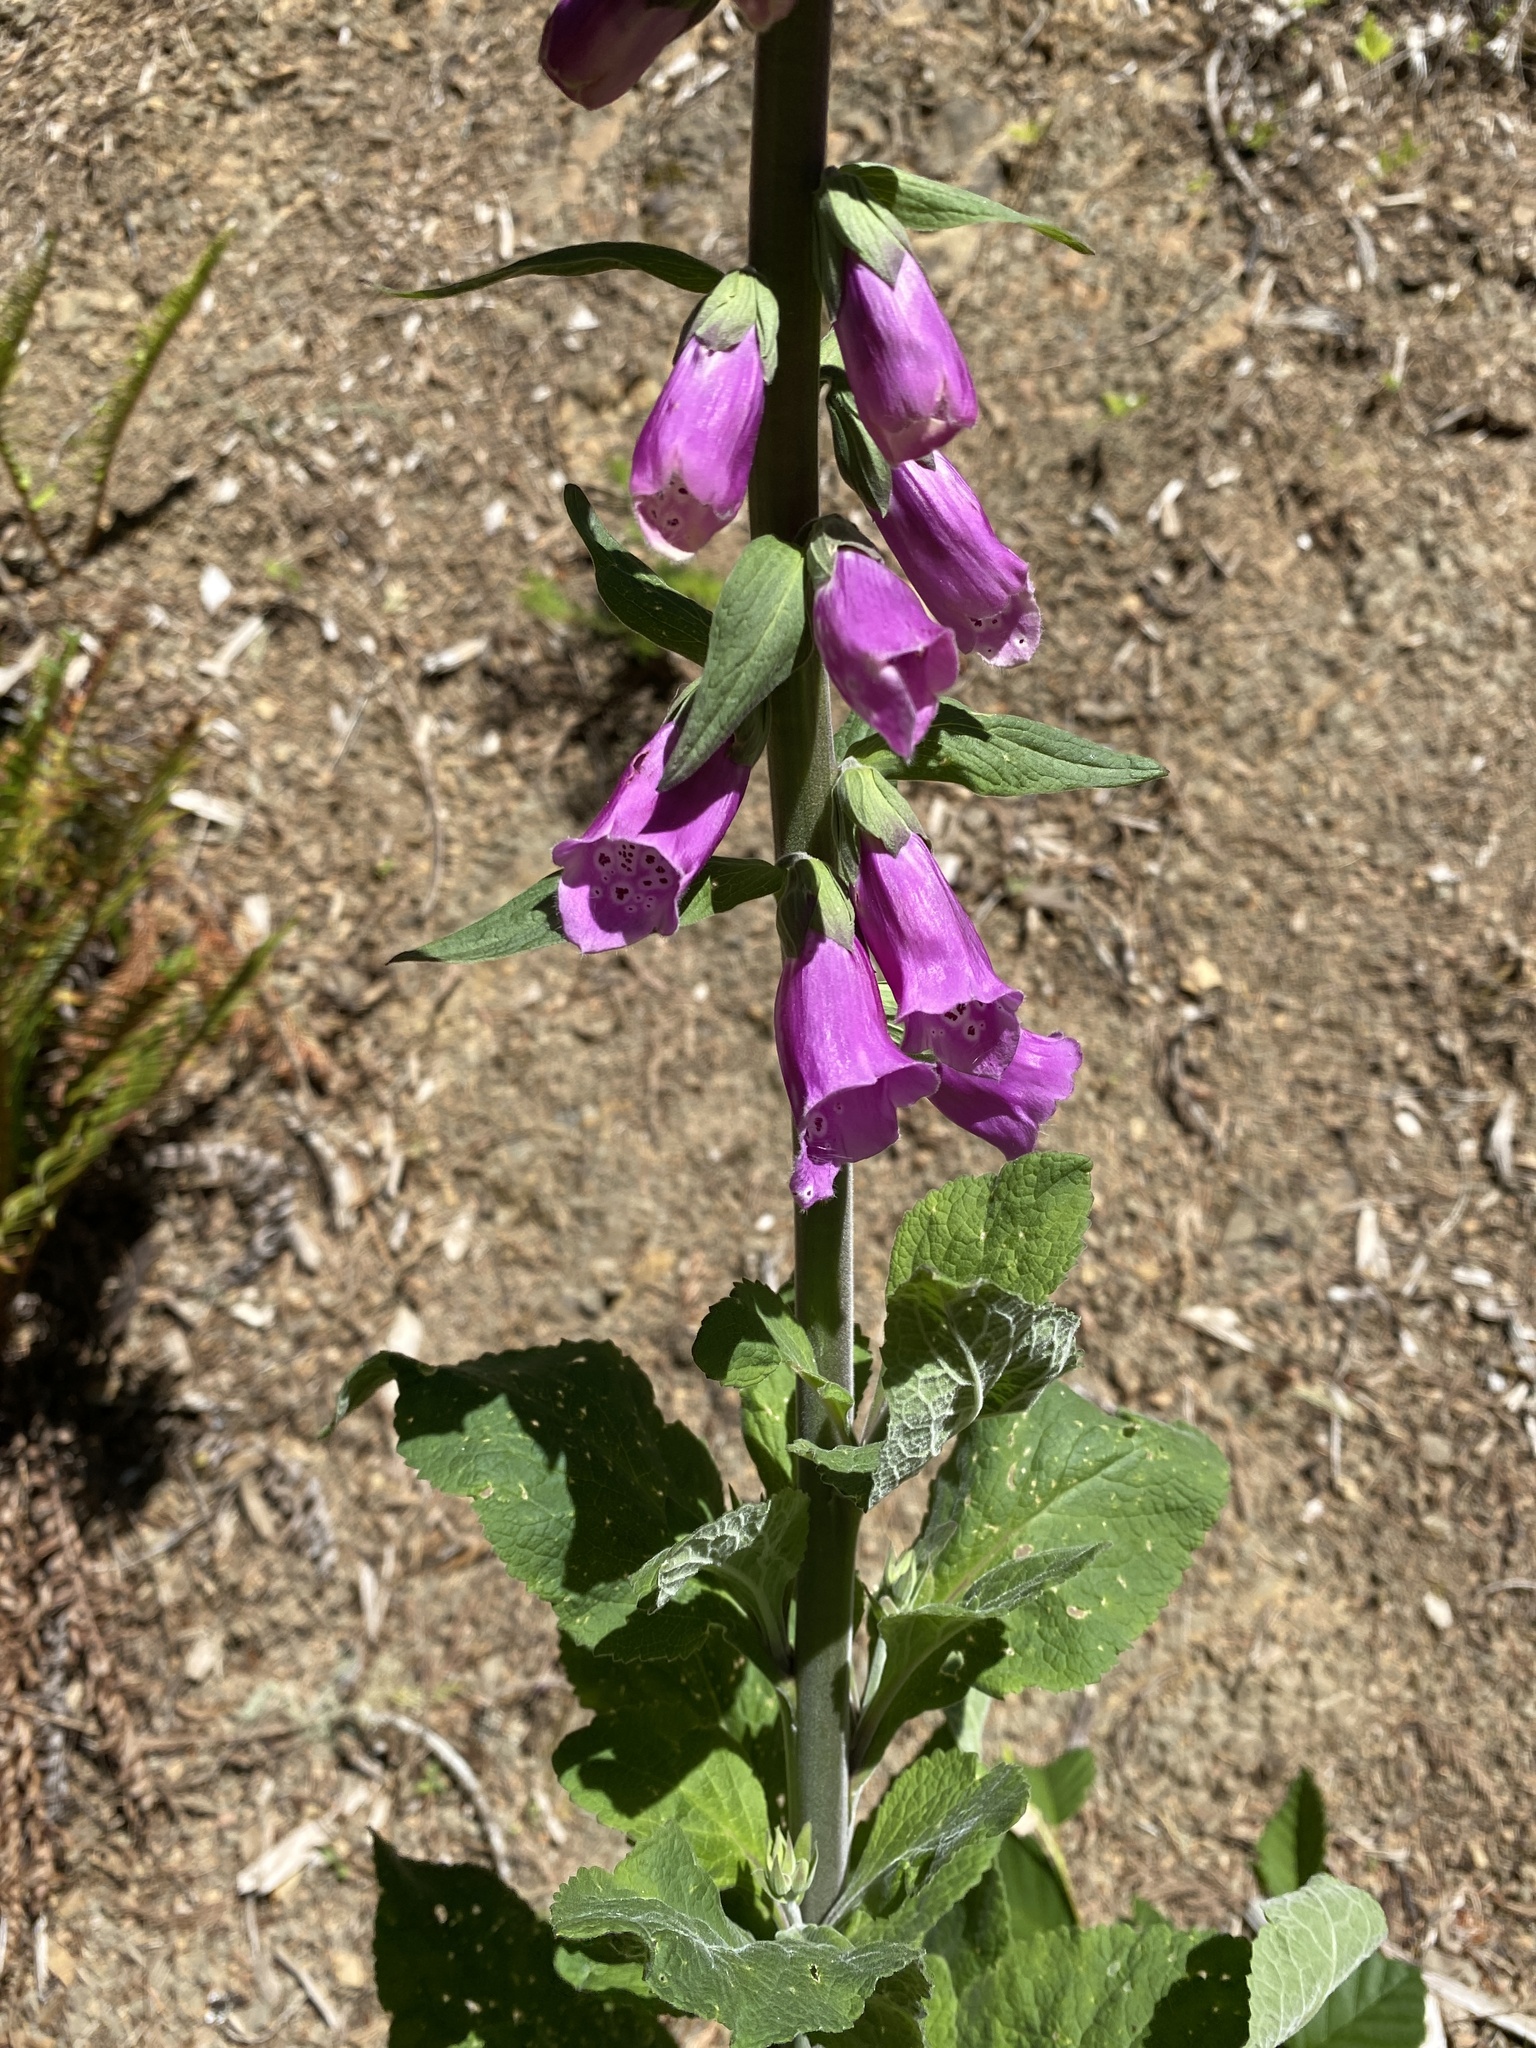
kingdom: Plantae
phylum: Tracheophyta
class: Magnoliopsida
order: Lamiales
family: Plantaginaceae
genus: Digitalis
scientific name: Digitalis purpurea
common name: Foxglove
